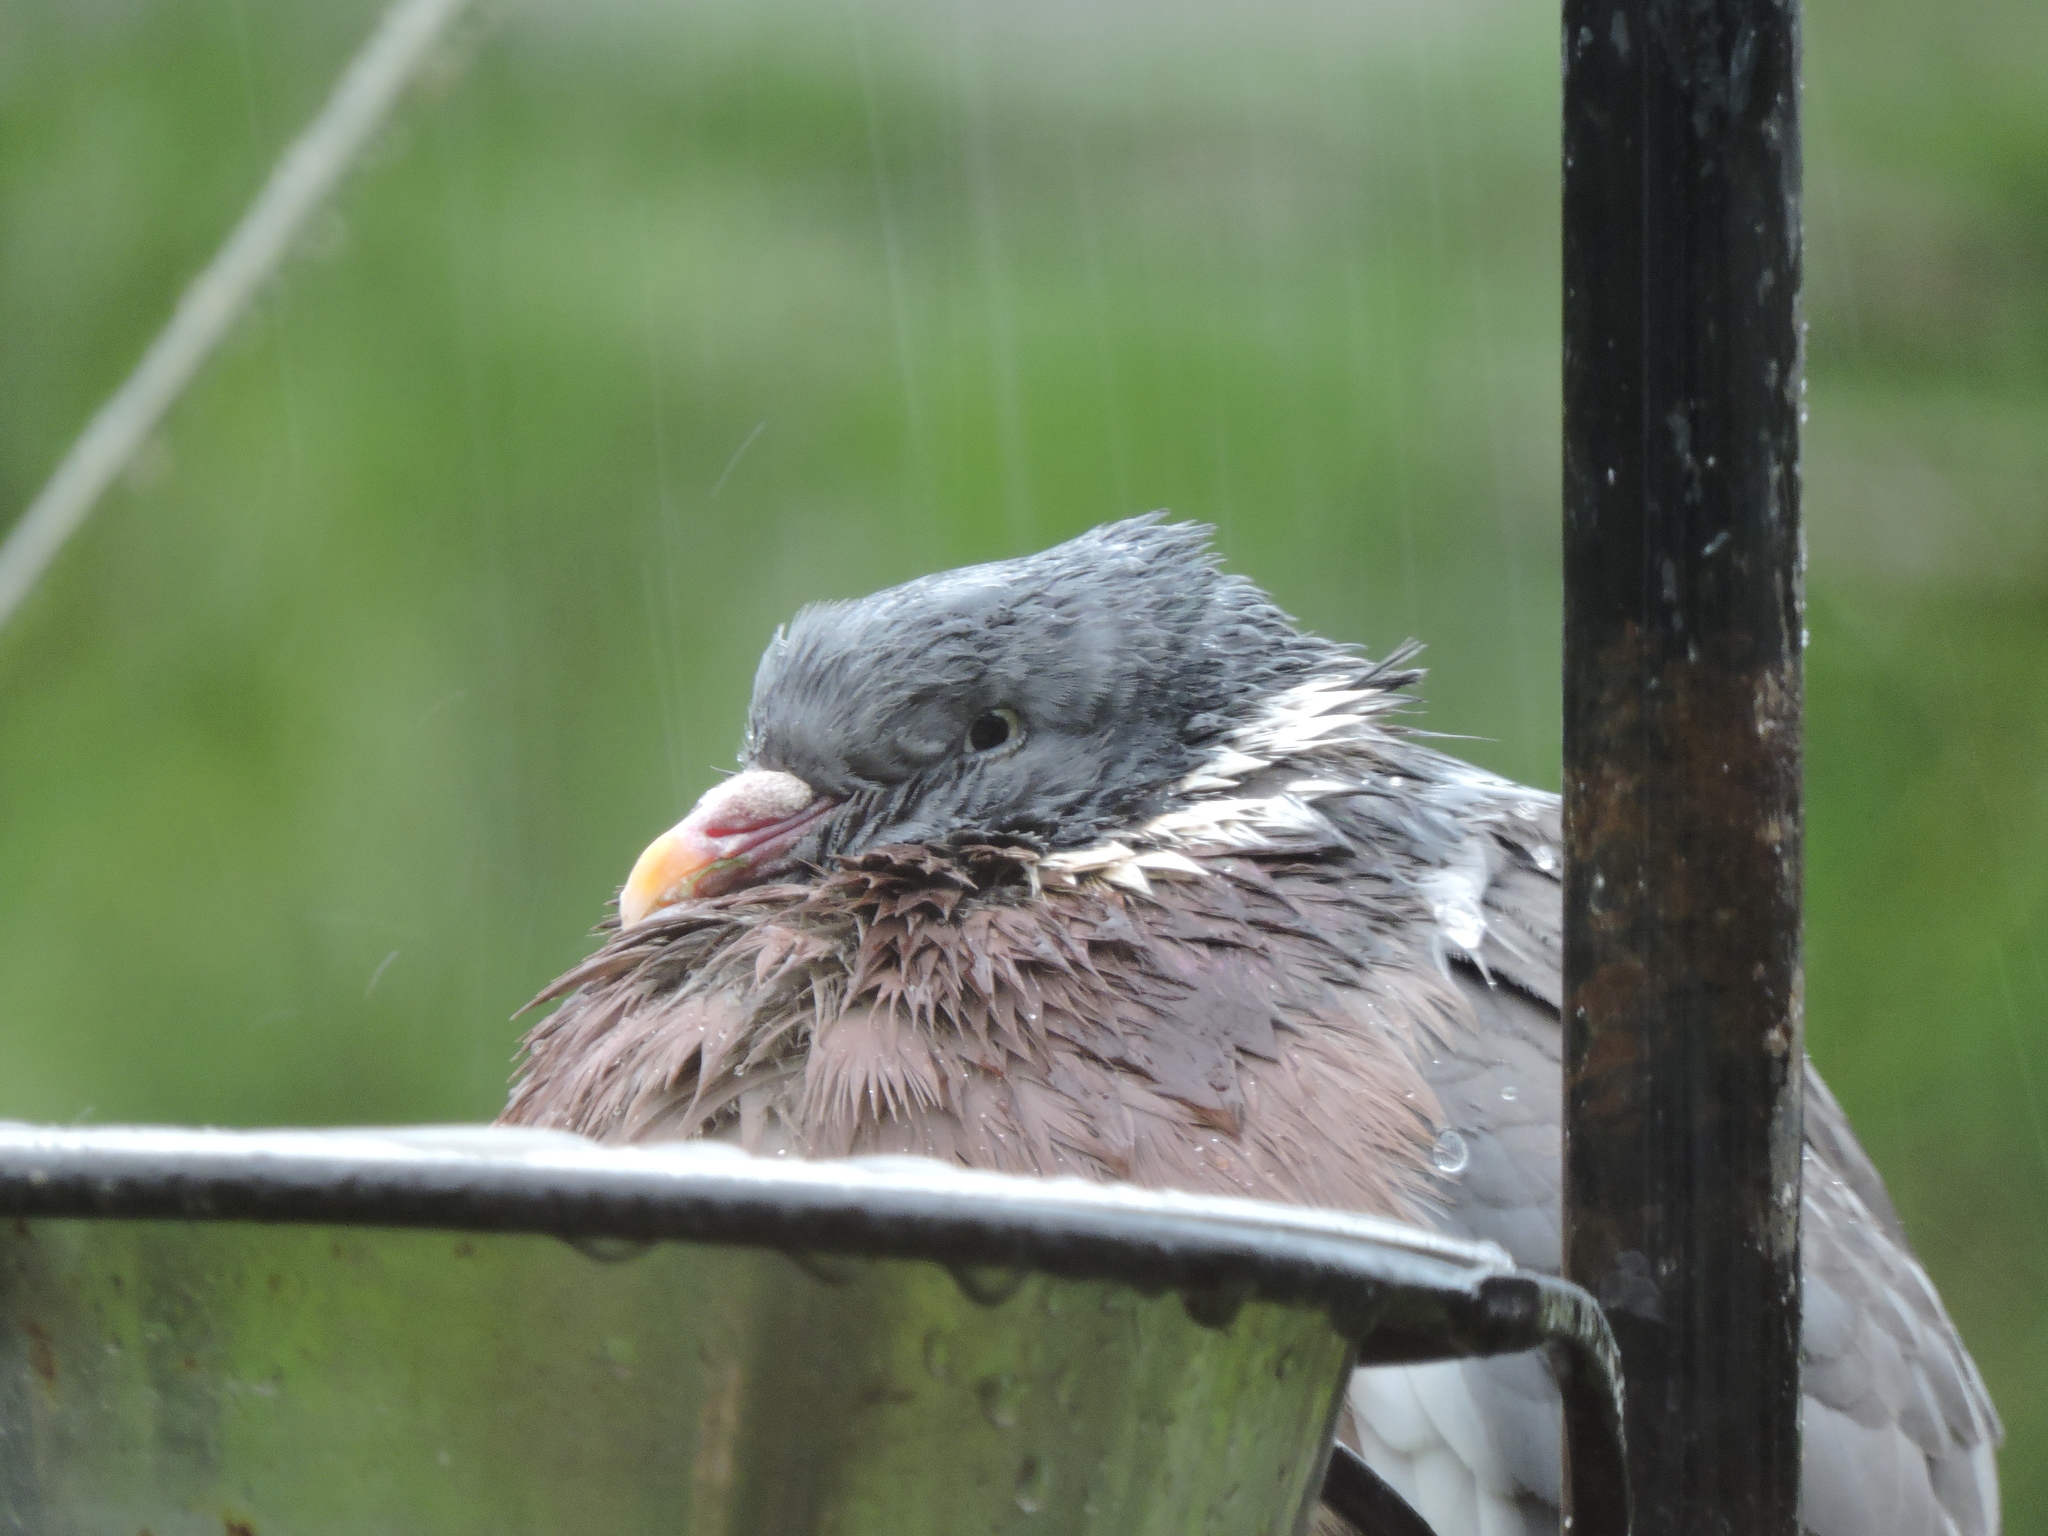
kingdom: Animalia
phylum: Chordata
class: Aves
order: Columbiformes
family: Columbidae
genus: Columba
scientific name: Columba palumbus
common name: Common wood pigeon
